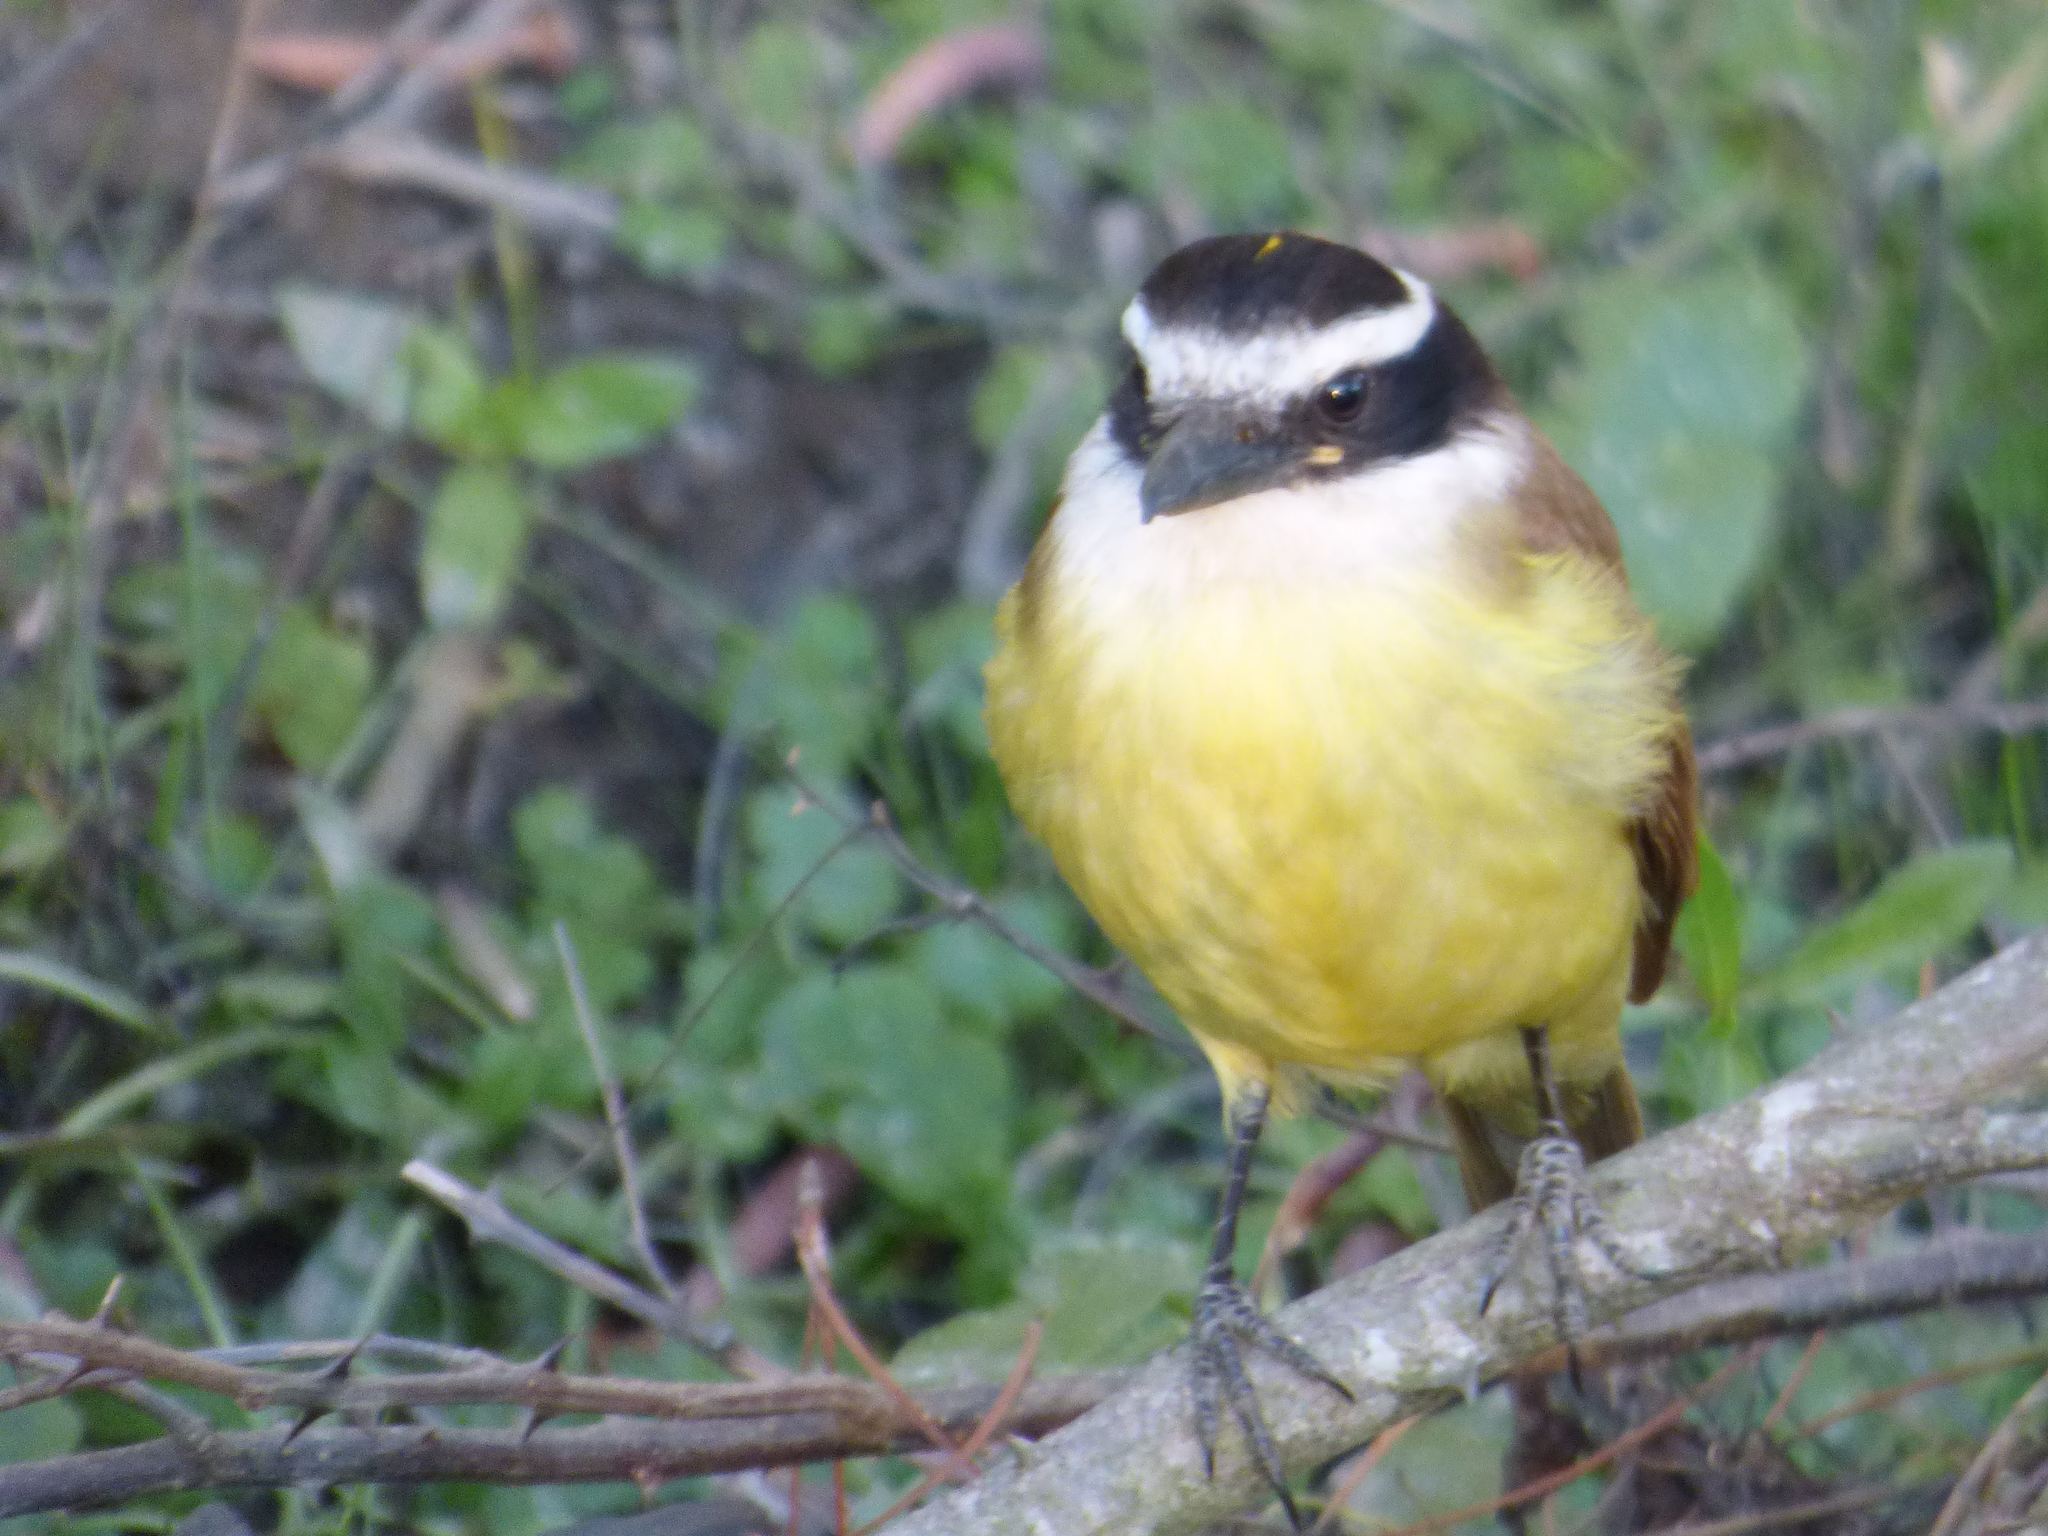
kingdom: Animalia
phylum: Chordata
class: Aves
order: Passeriformes
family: Tyrannidae
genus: Pitangus
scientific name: Pitangus sulphuratus
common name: Great kiskadee
